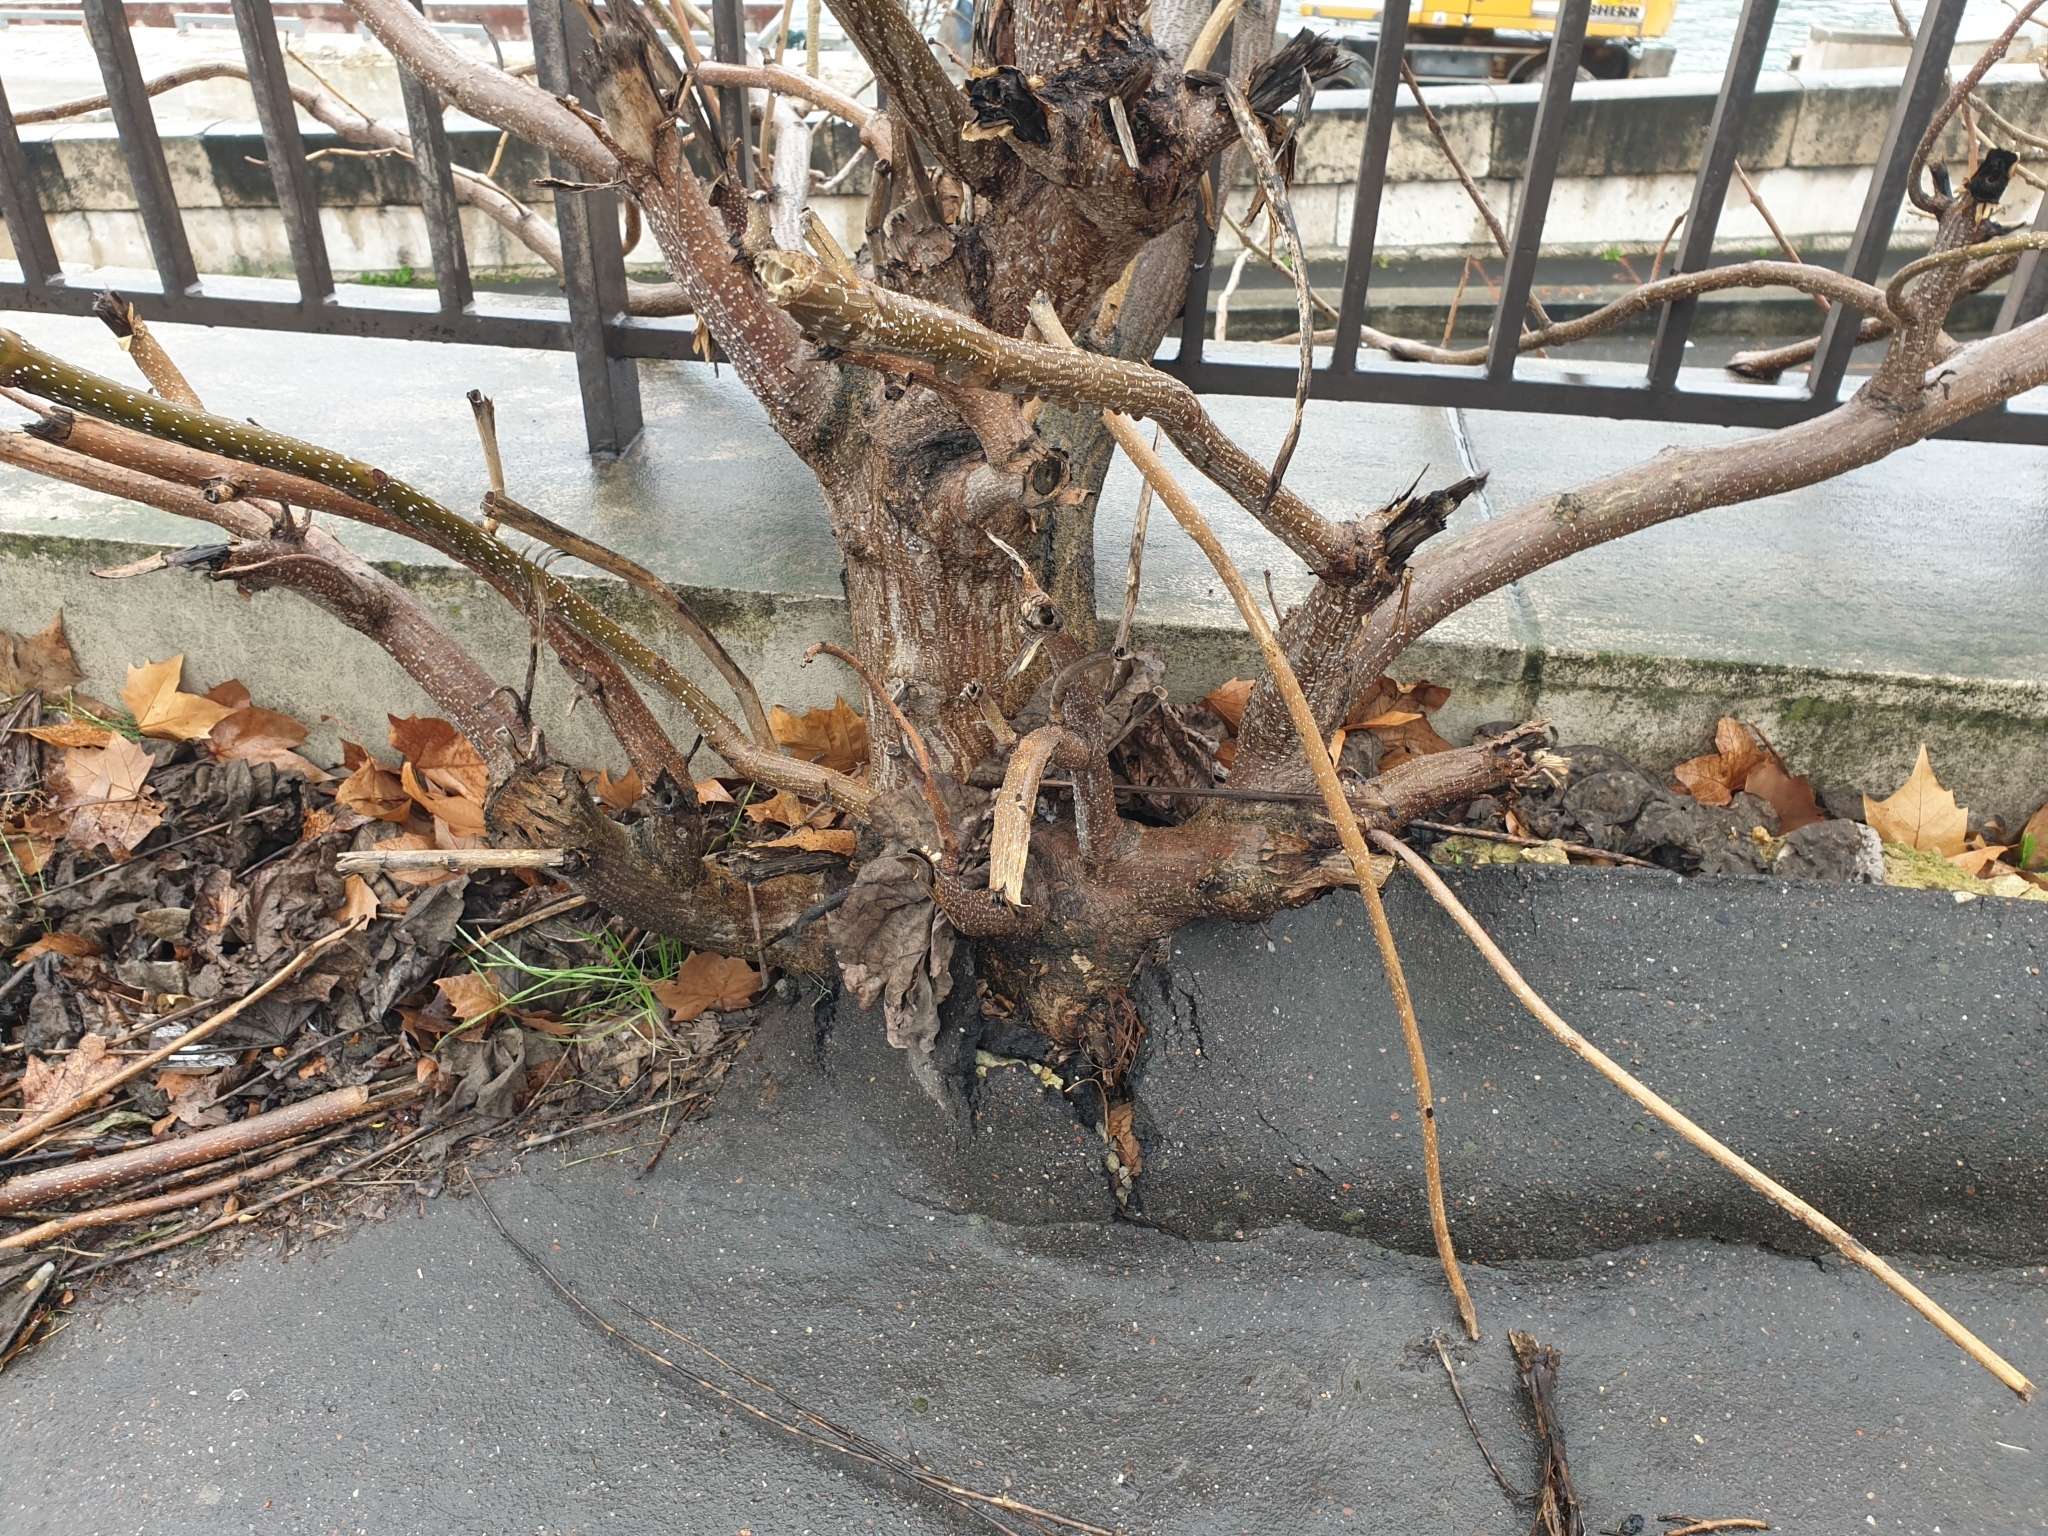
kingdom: Plantae
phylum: Tracheophyta
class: Magnoliopsida
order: Lamiales
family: Paulowniaceae
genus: Paulownia
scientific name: Paulownia tomentosa
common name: Foxglove-tree
